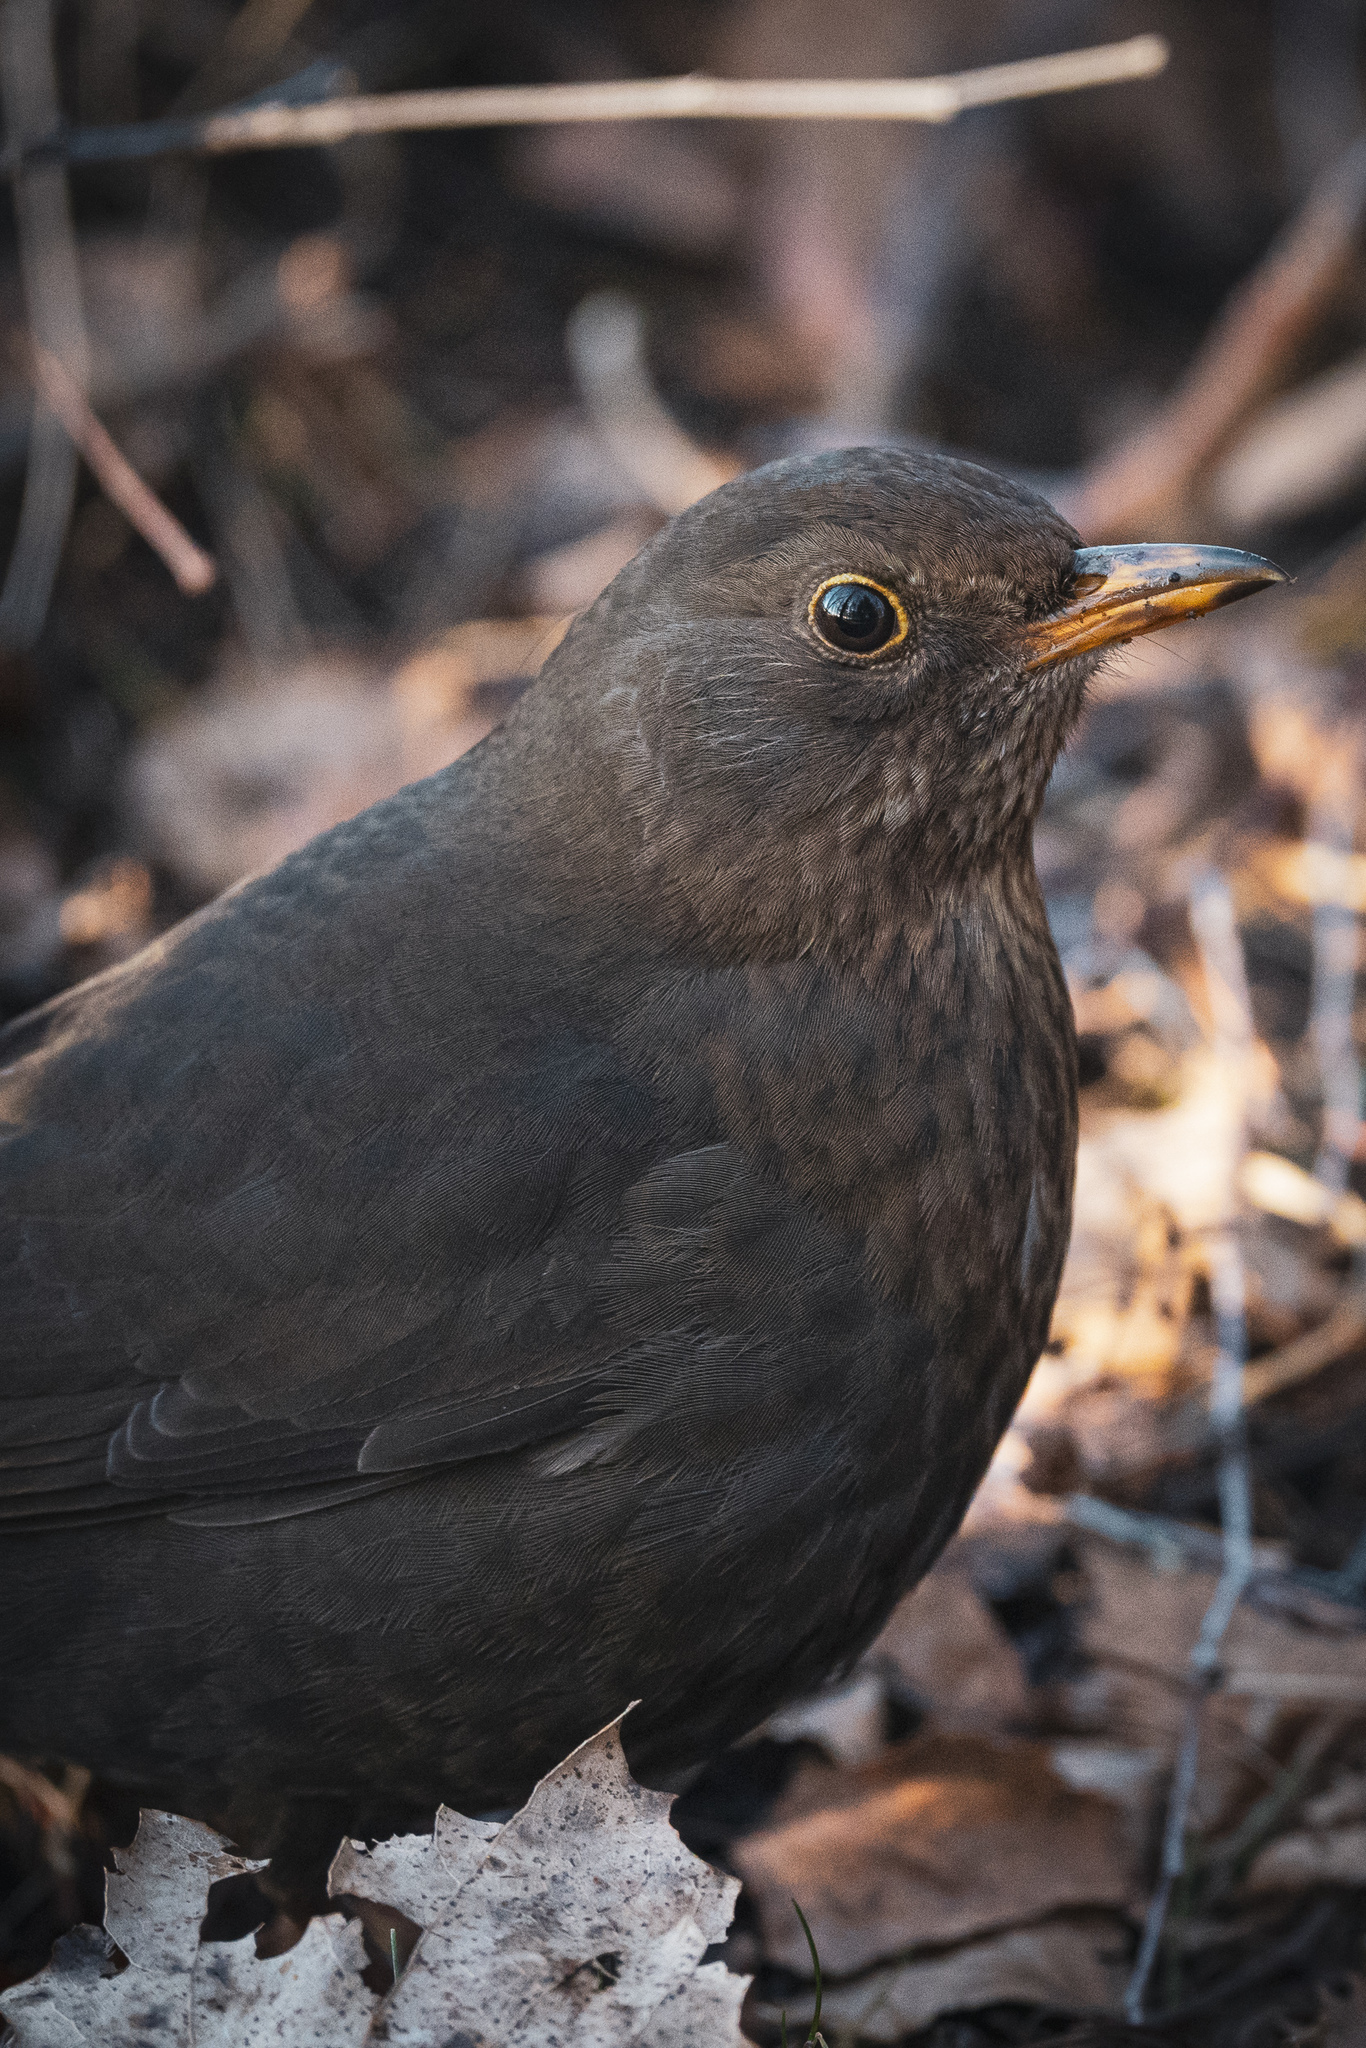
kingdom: Animalia
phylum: Chordata
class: Aves
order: Passeriformes
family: Turdidae
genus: Turdus
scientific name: Turdus merula
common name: Common blackbird
